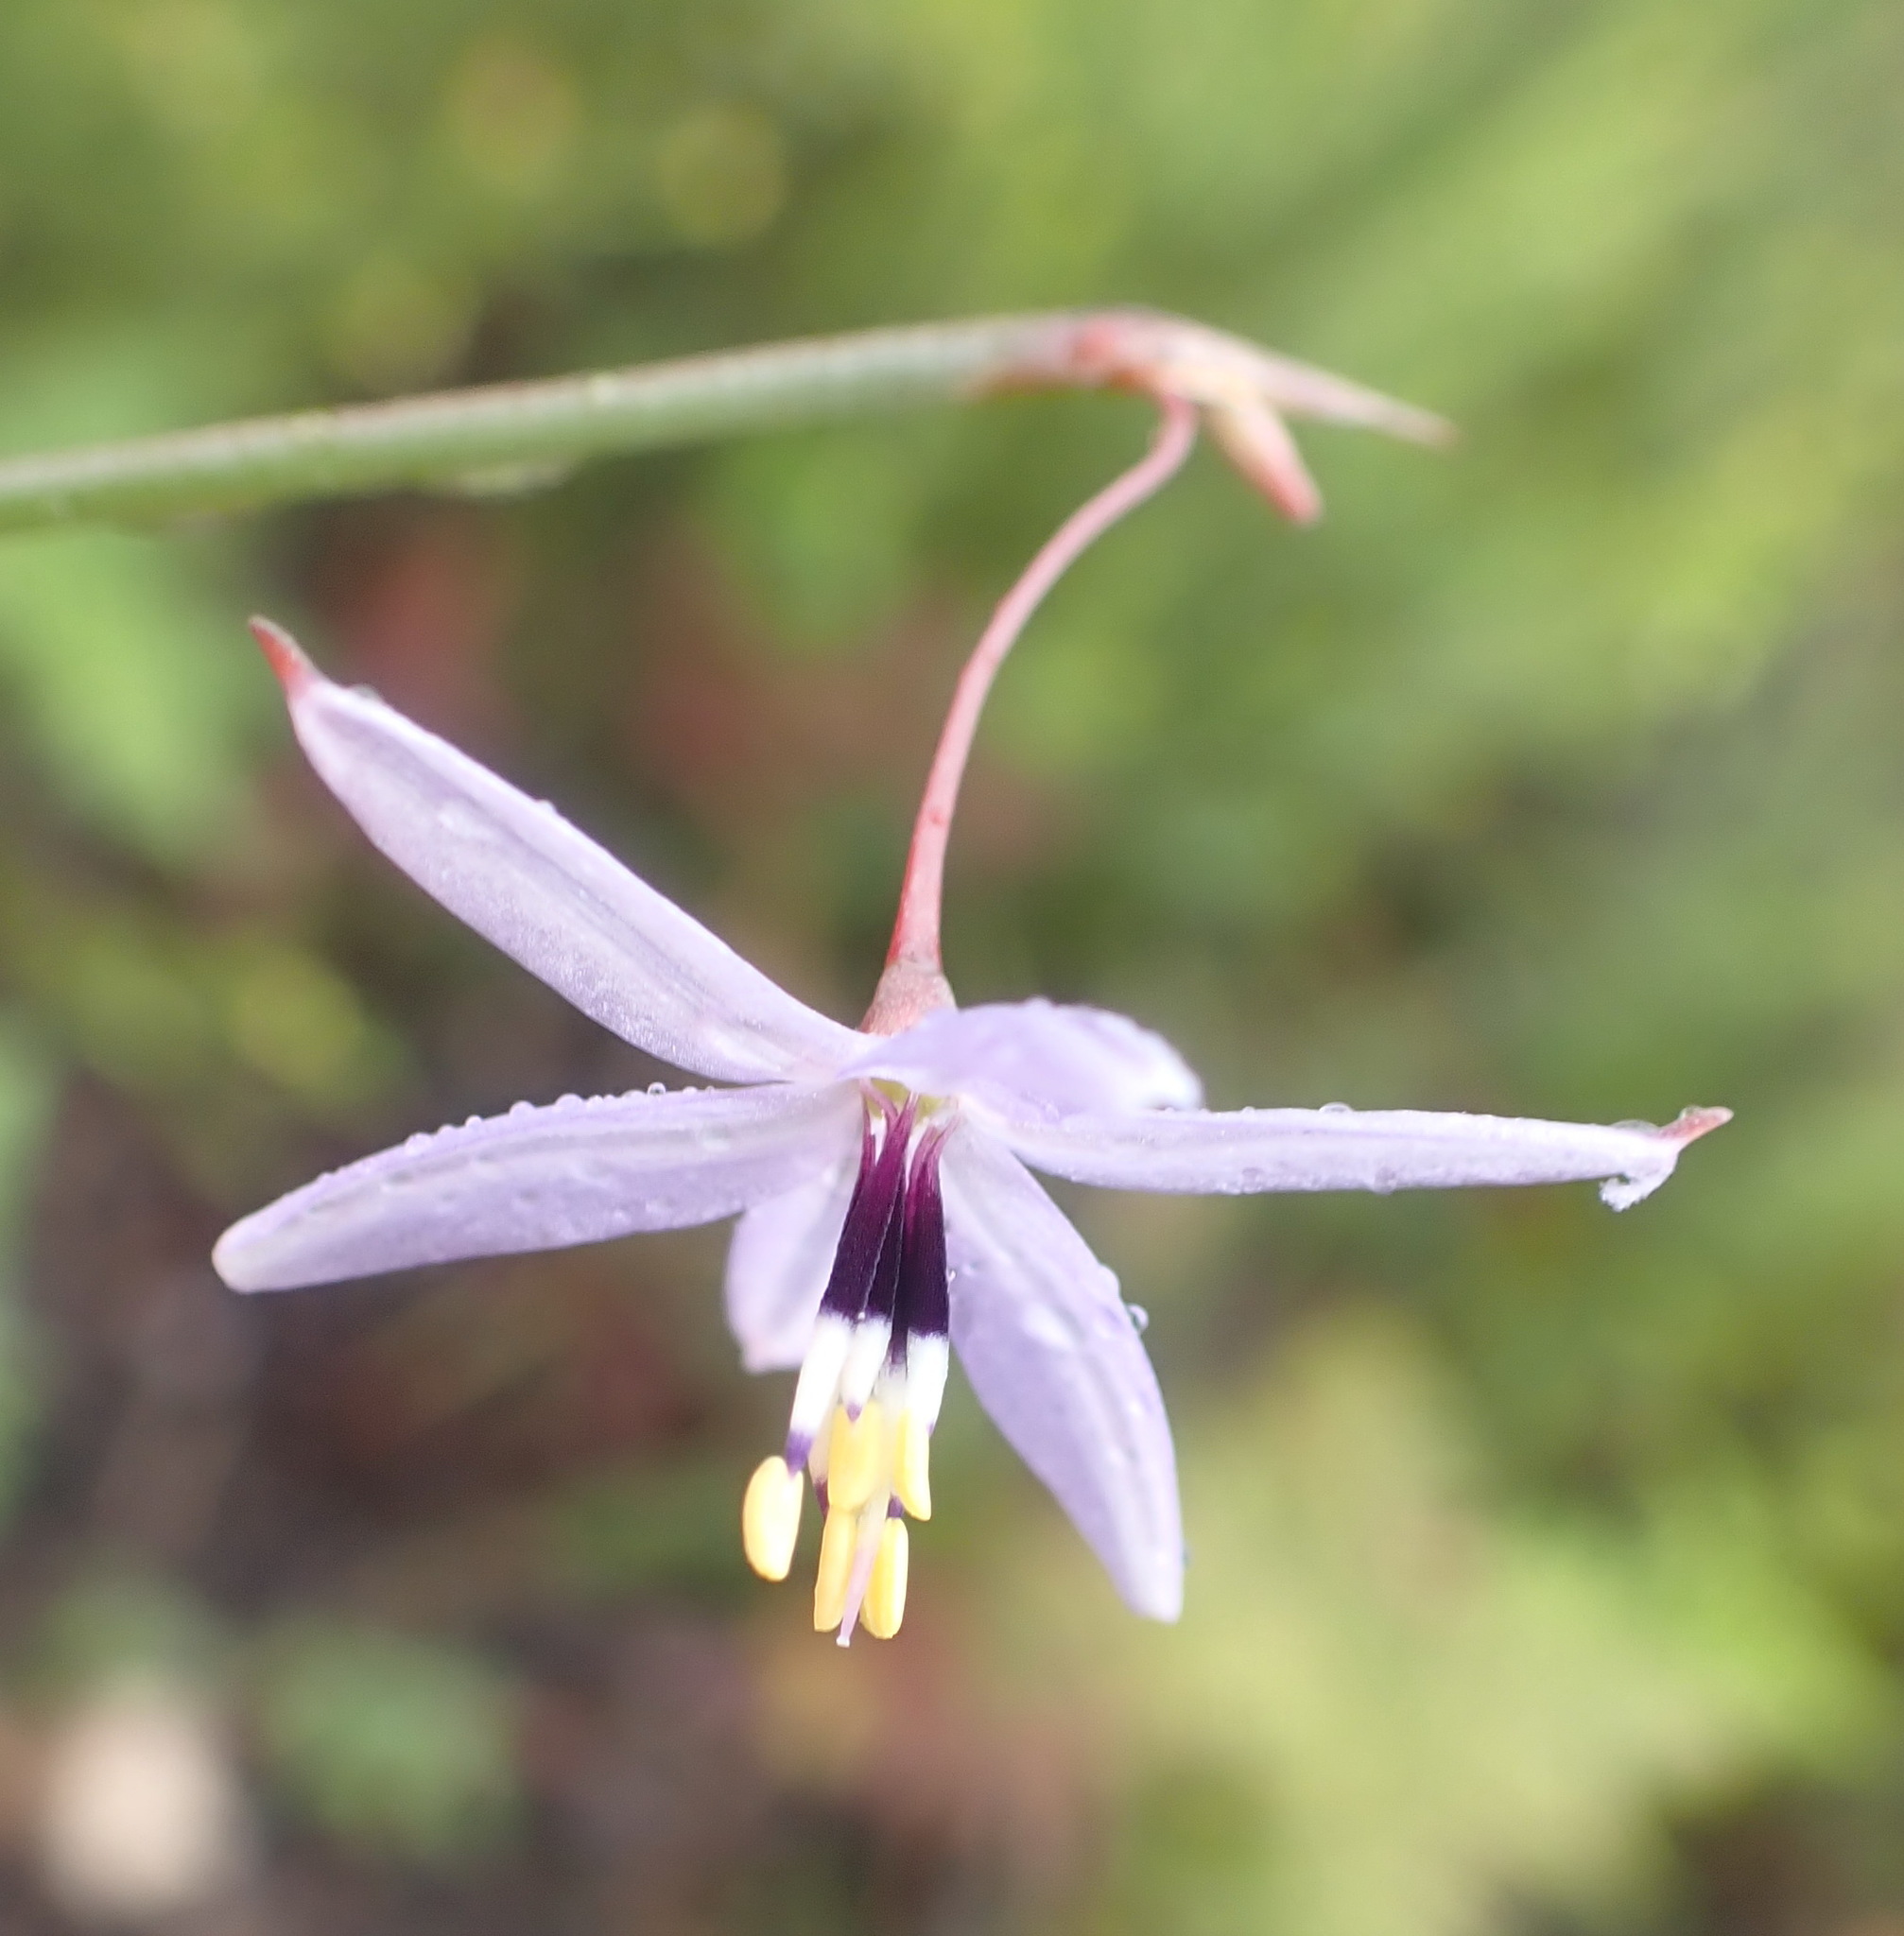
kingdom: Plantae
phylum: Tracheophyta
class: Liliopsida
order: Asparagales
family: Asphodelaceae
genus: Caesia
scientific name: Caesia contorta
